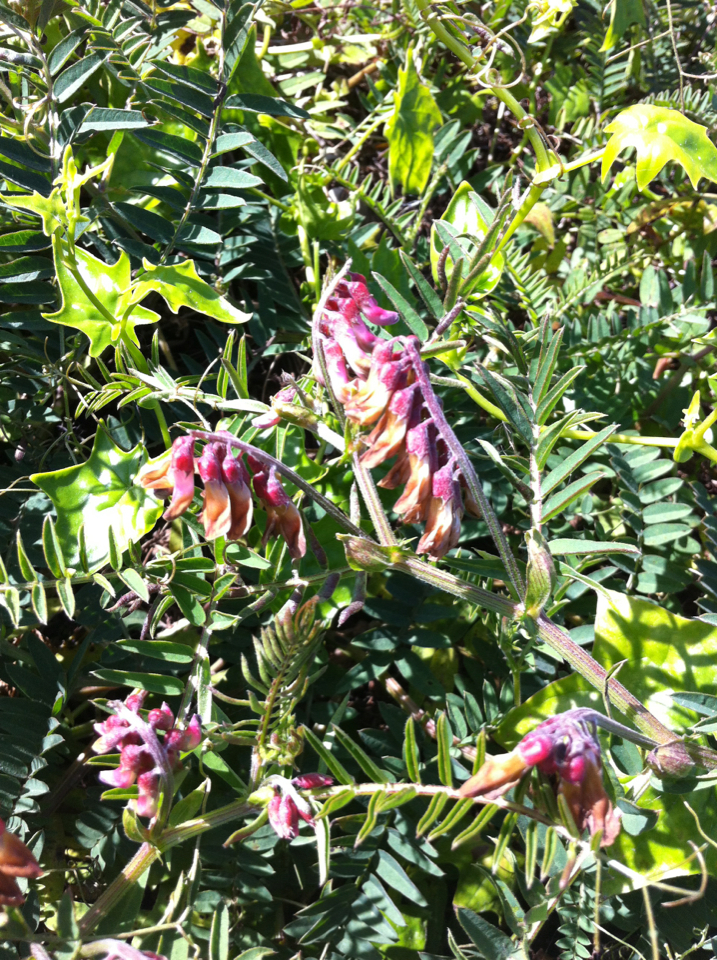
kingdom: Plantae
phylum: Tracheophyta
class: Magnoliopsida
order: Fabales
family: Fabaceae
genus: Vicia
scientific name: Vicia
